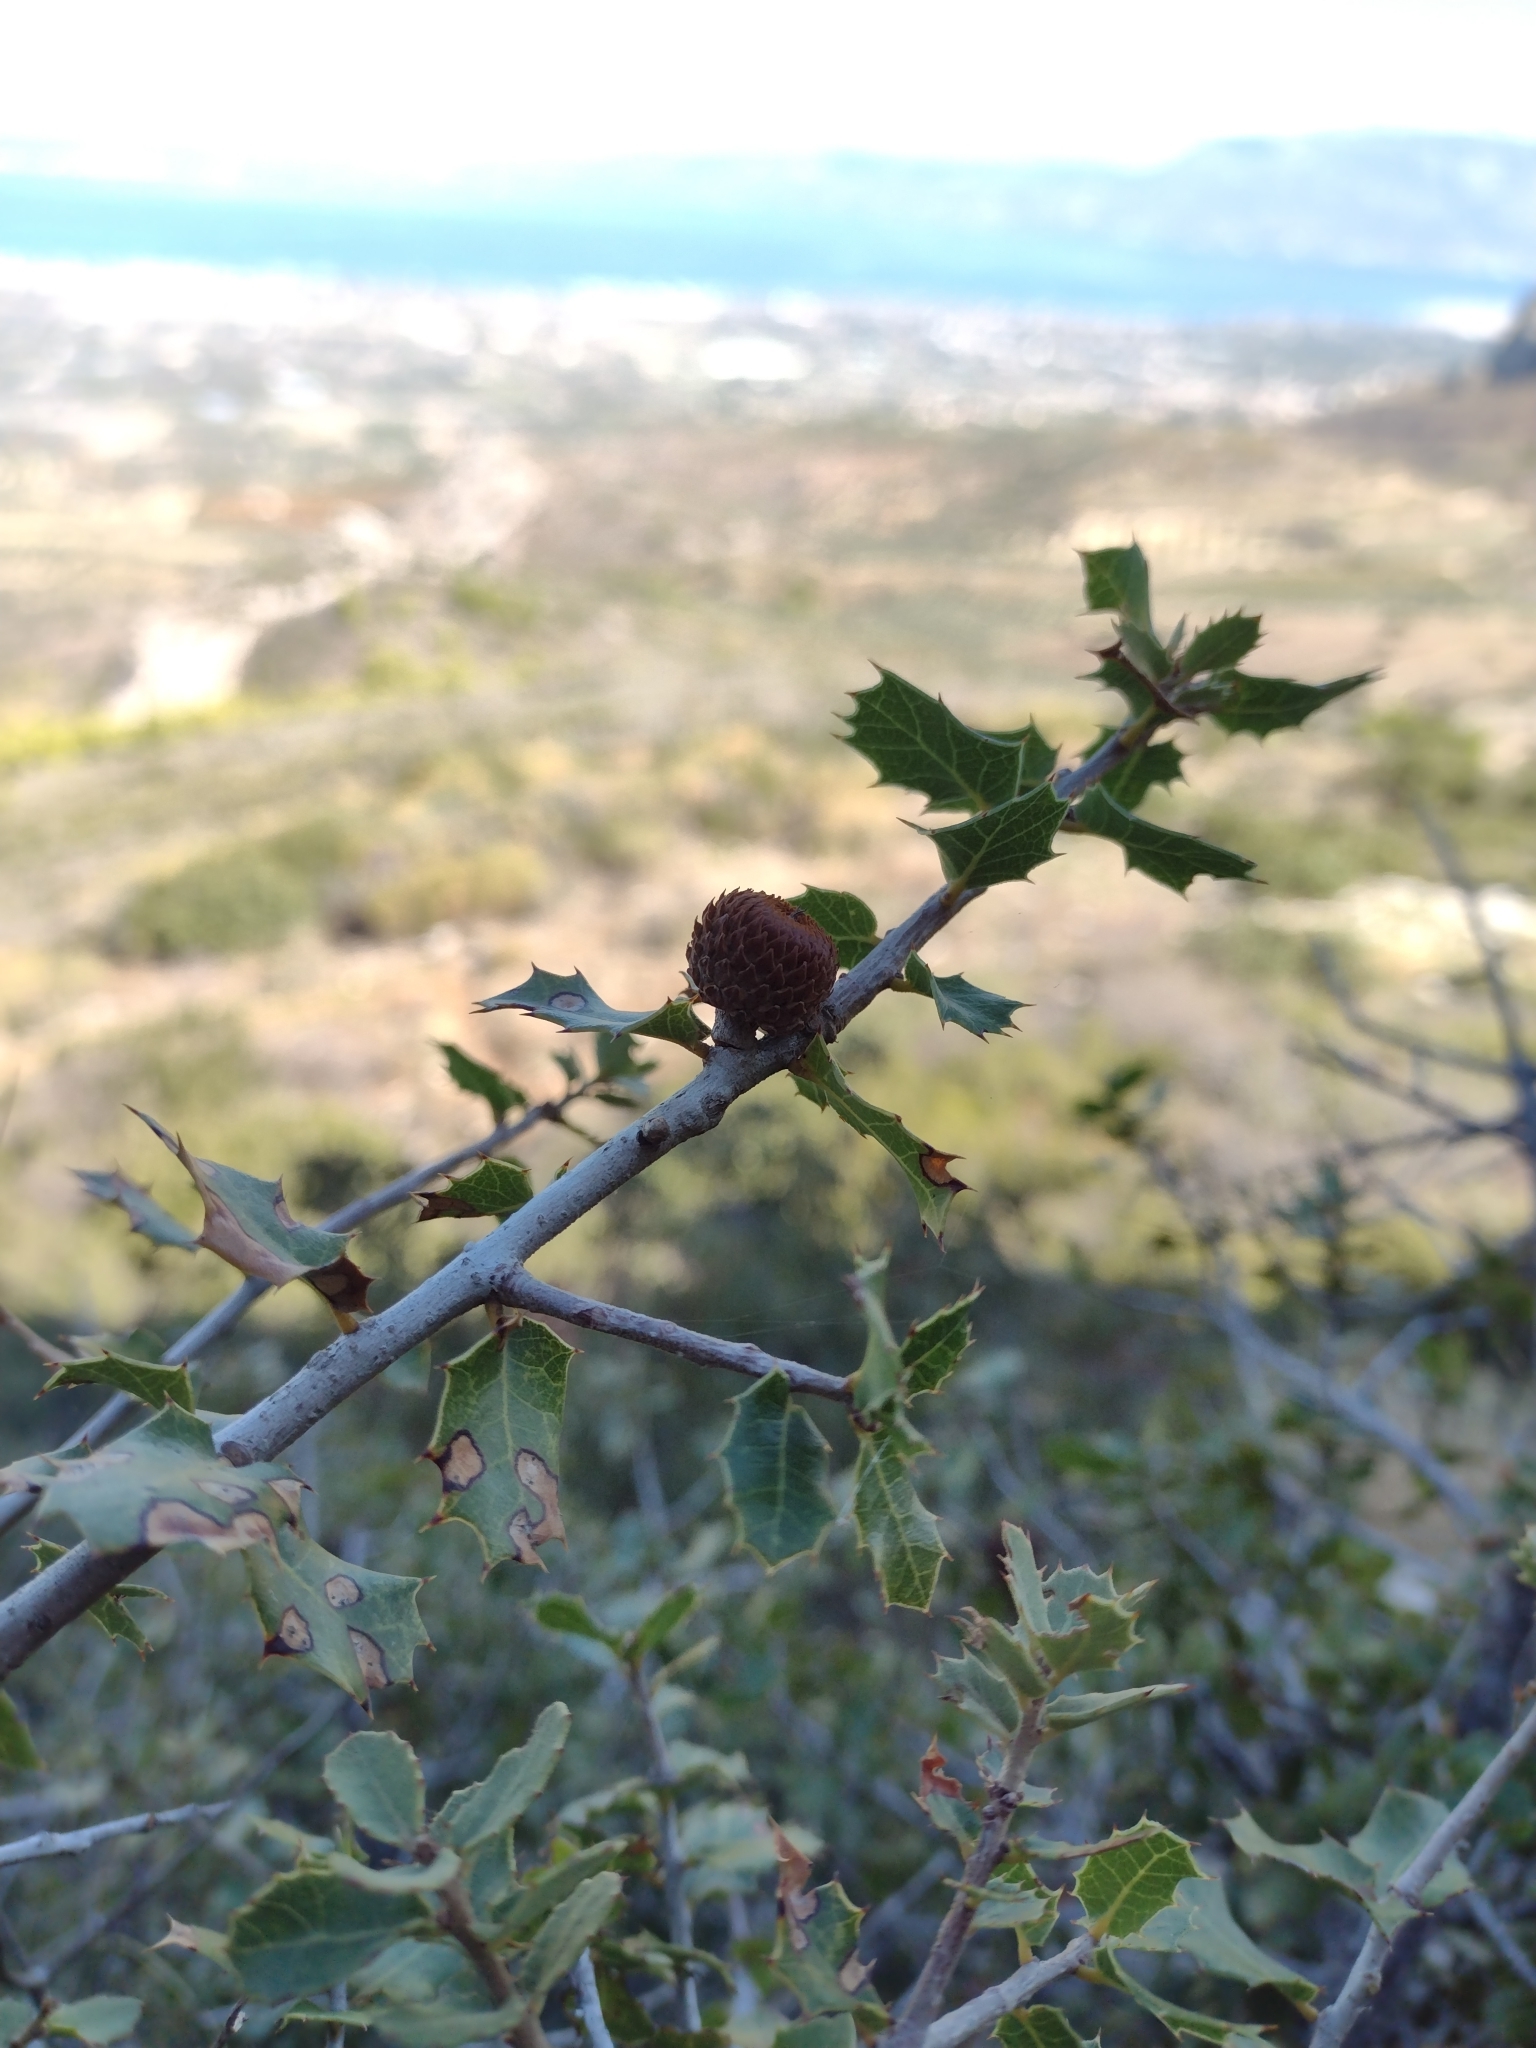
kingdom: Plantae
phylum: Tracheophyta
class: Magnoliopsida
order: Fagales
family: Fagaceae
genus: Quercus
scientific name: Quercus coccifera
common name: Kermes oak
